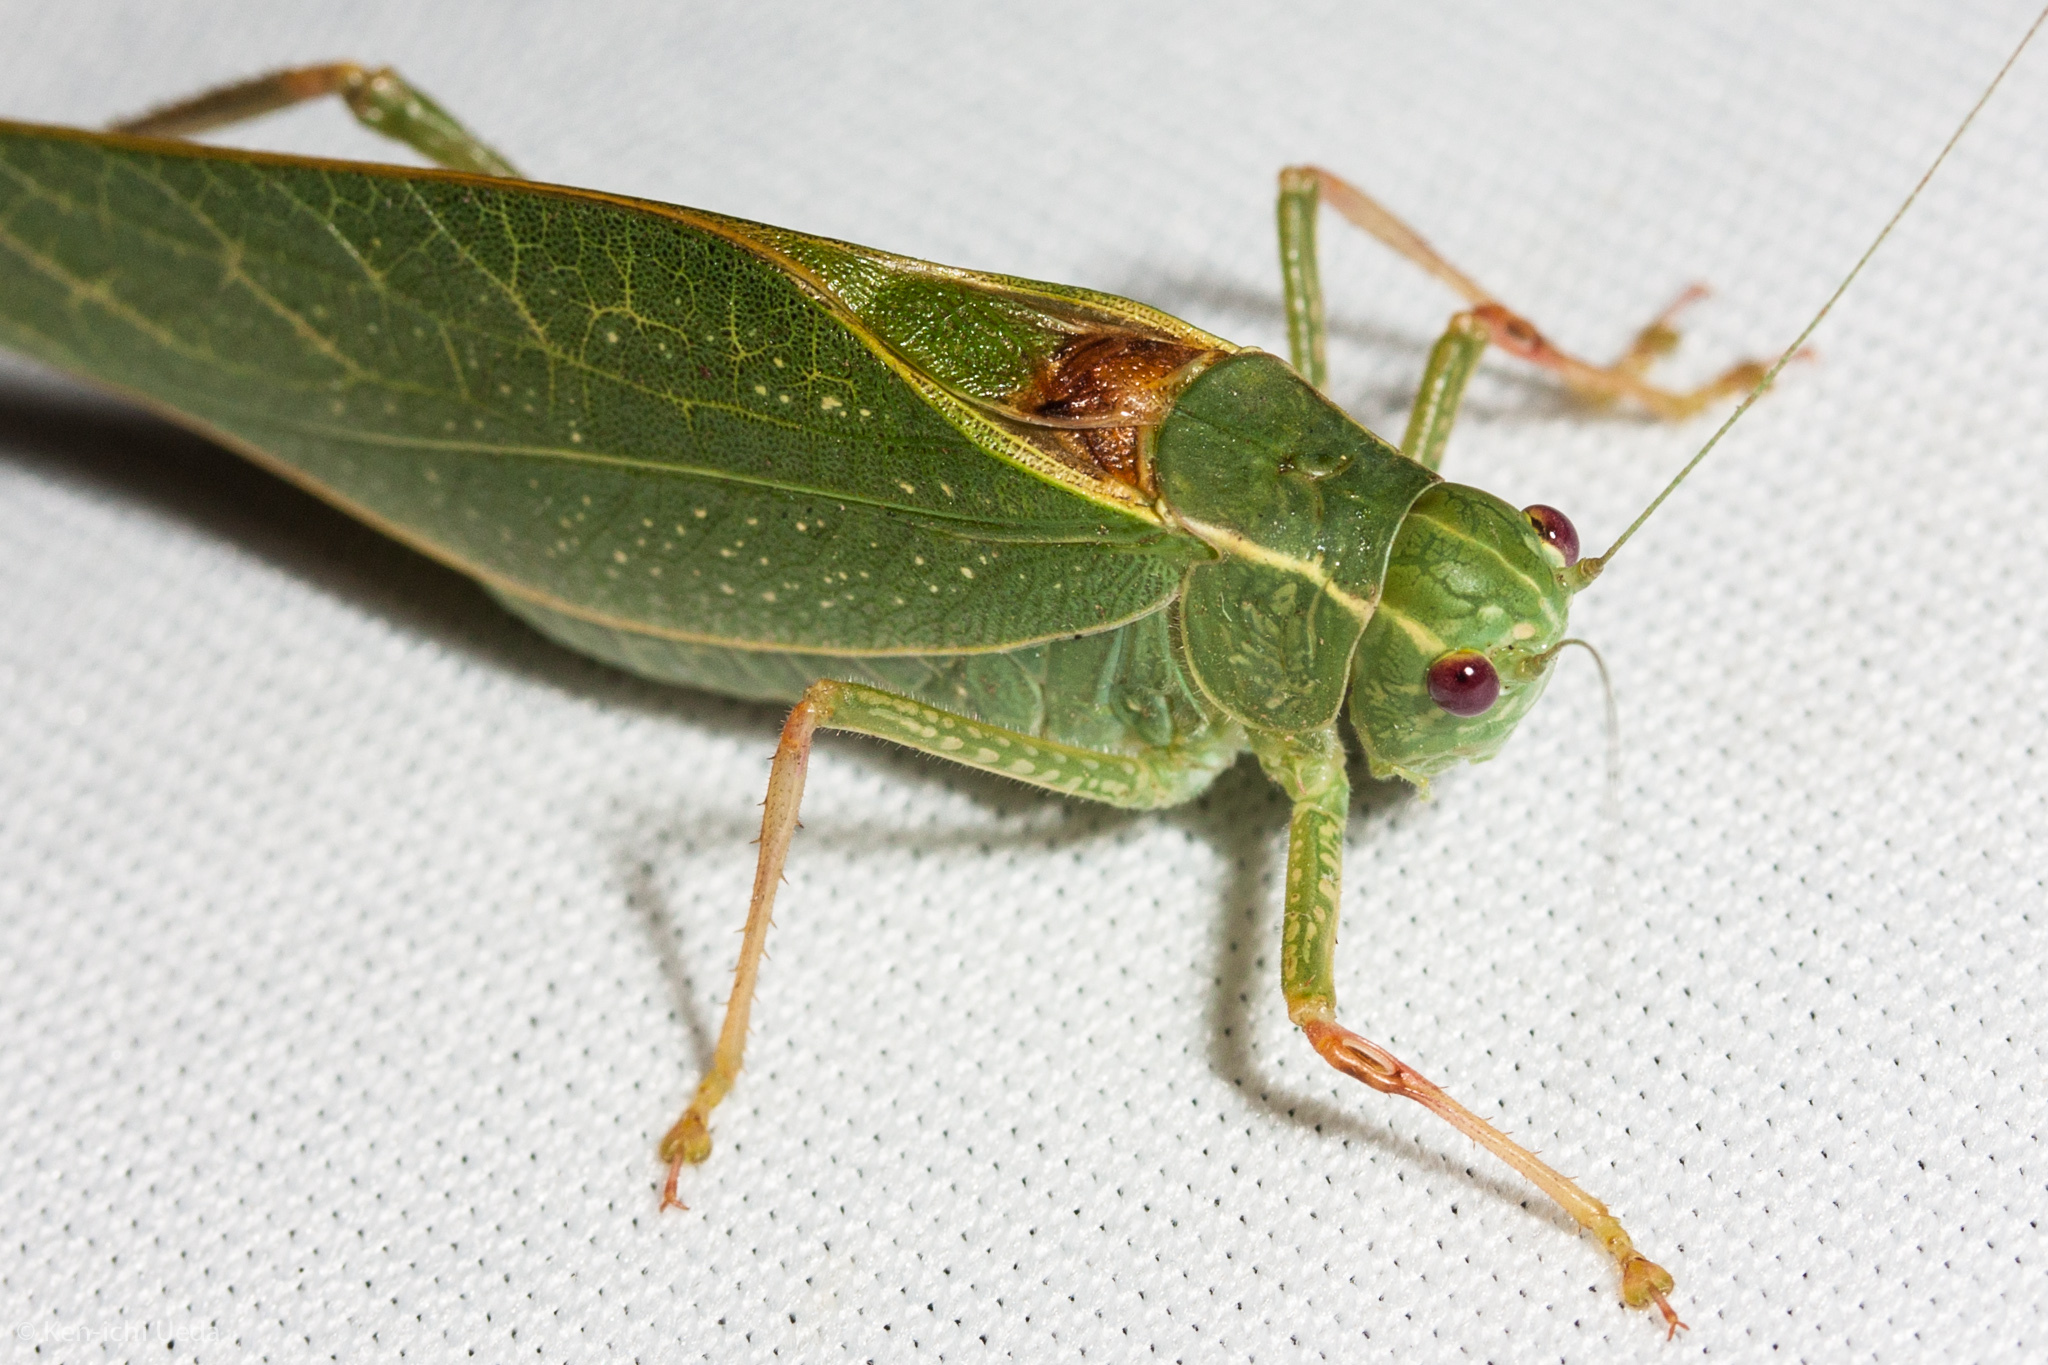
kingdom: Animalia
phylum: Arthropoda
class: Insecta
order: Orthoptera
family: Tettigoniidae
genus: Microcentrum
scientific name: Microcentrum californicum
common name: California angle-wing
